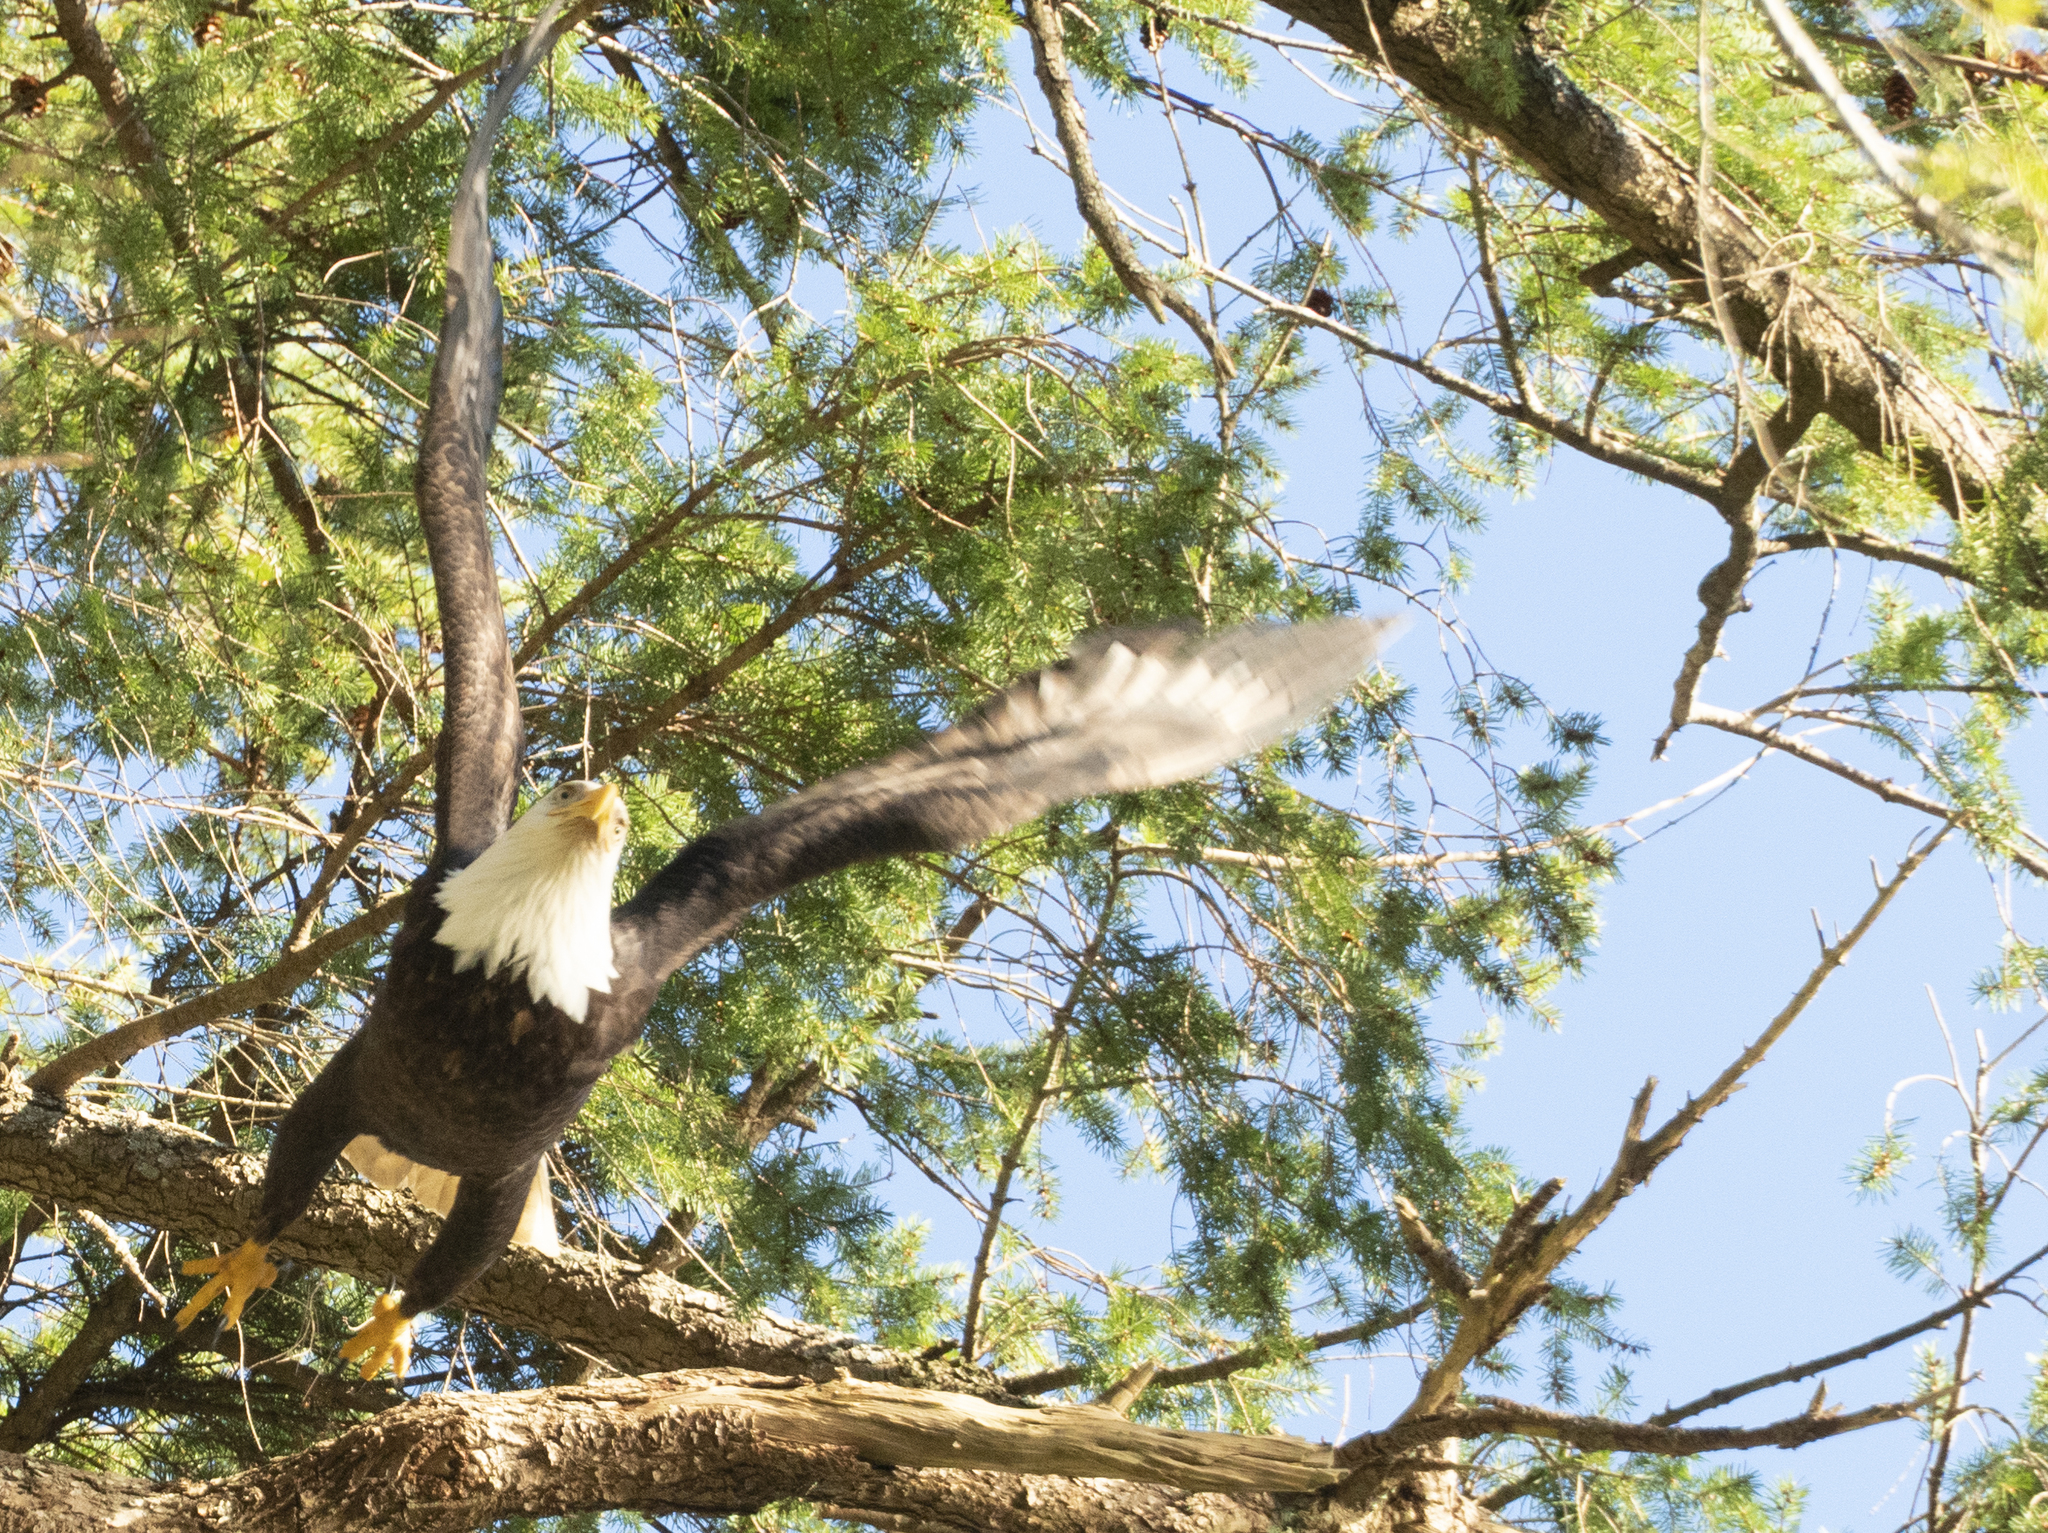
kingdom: Animalia
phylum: Chordata
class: Aves
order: Accipitriformes
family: Accipitridae
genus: Haliaeetus
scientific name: Haliaeetus leucocephalus
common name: Bald eagle
